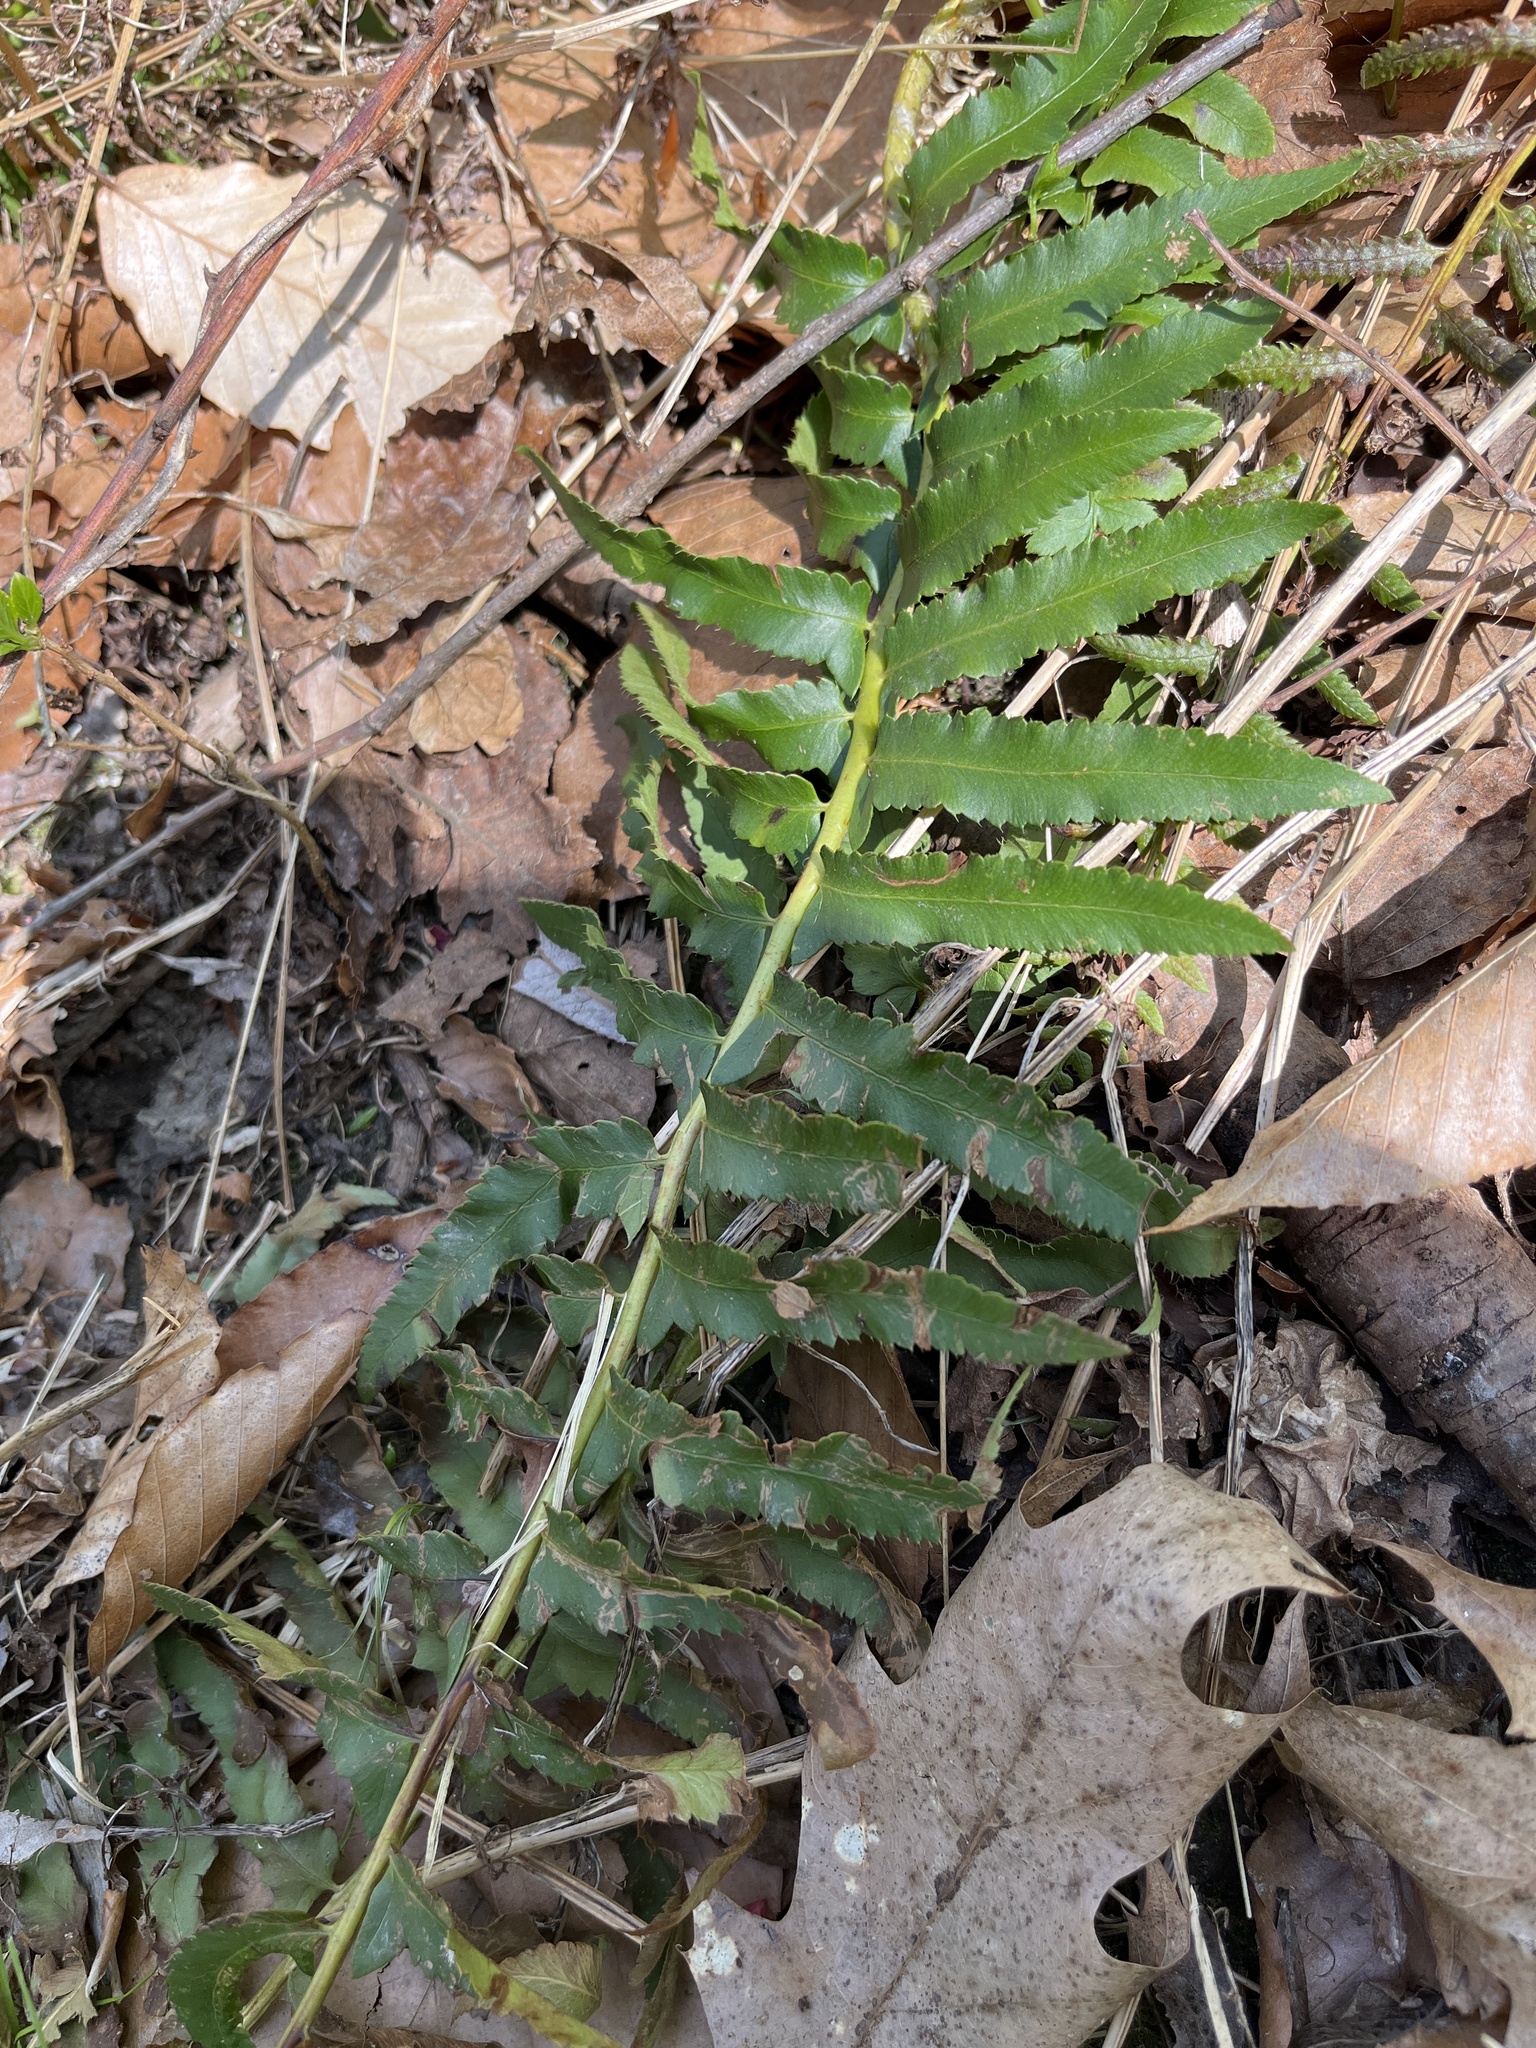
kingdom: Plantae
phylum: Tracheophyta
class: Polypodiopsida
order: Polypodiales
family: Dryopteridaceae
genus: Polystichum
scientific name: Polystichum acrostichoides
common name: Christmas fern
